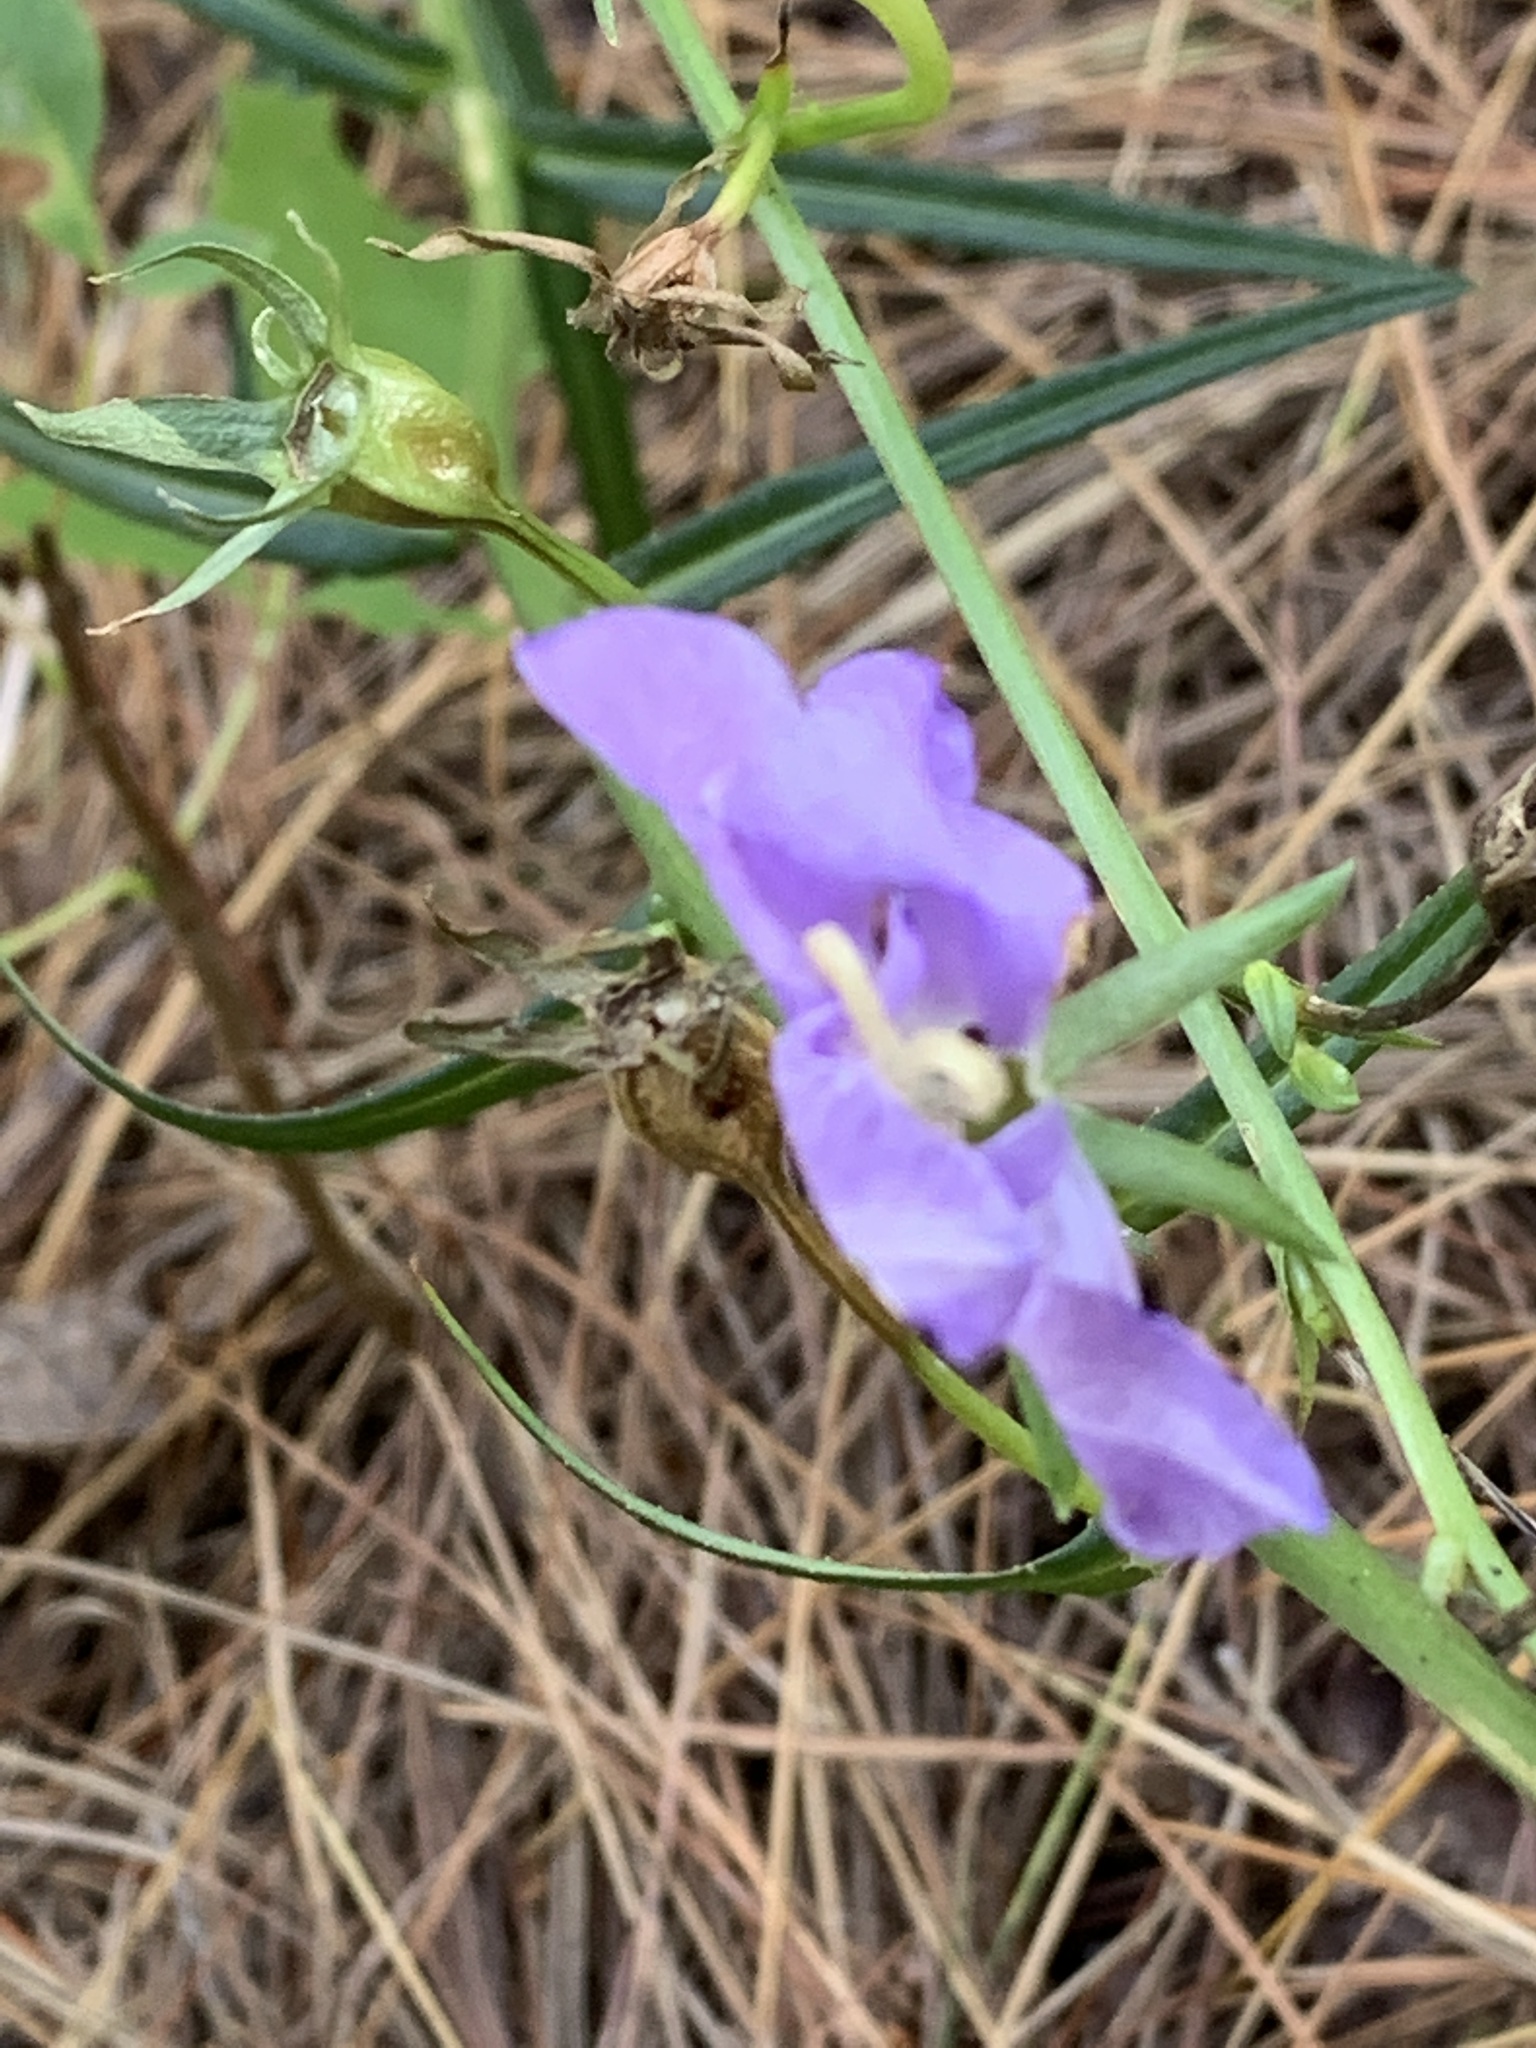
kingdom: Plantae
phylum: Tracheophyta
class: Magnoliopsida
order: Asterales
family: Campanulaceae
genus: Campanula
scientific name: Campanula persicifolia
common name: Peach-leaved bellflower
